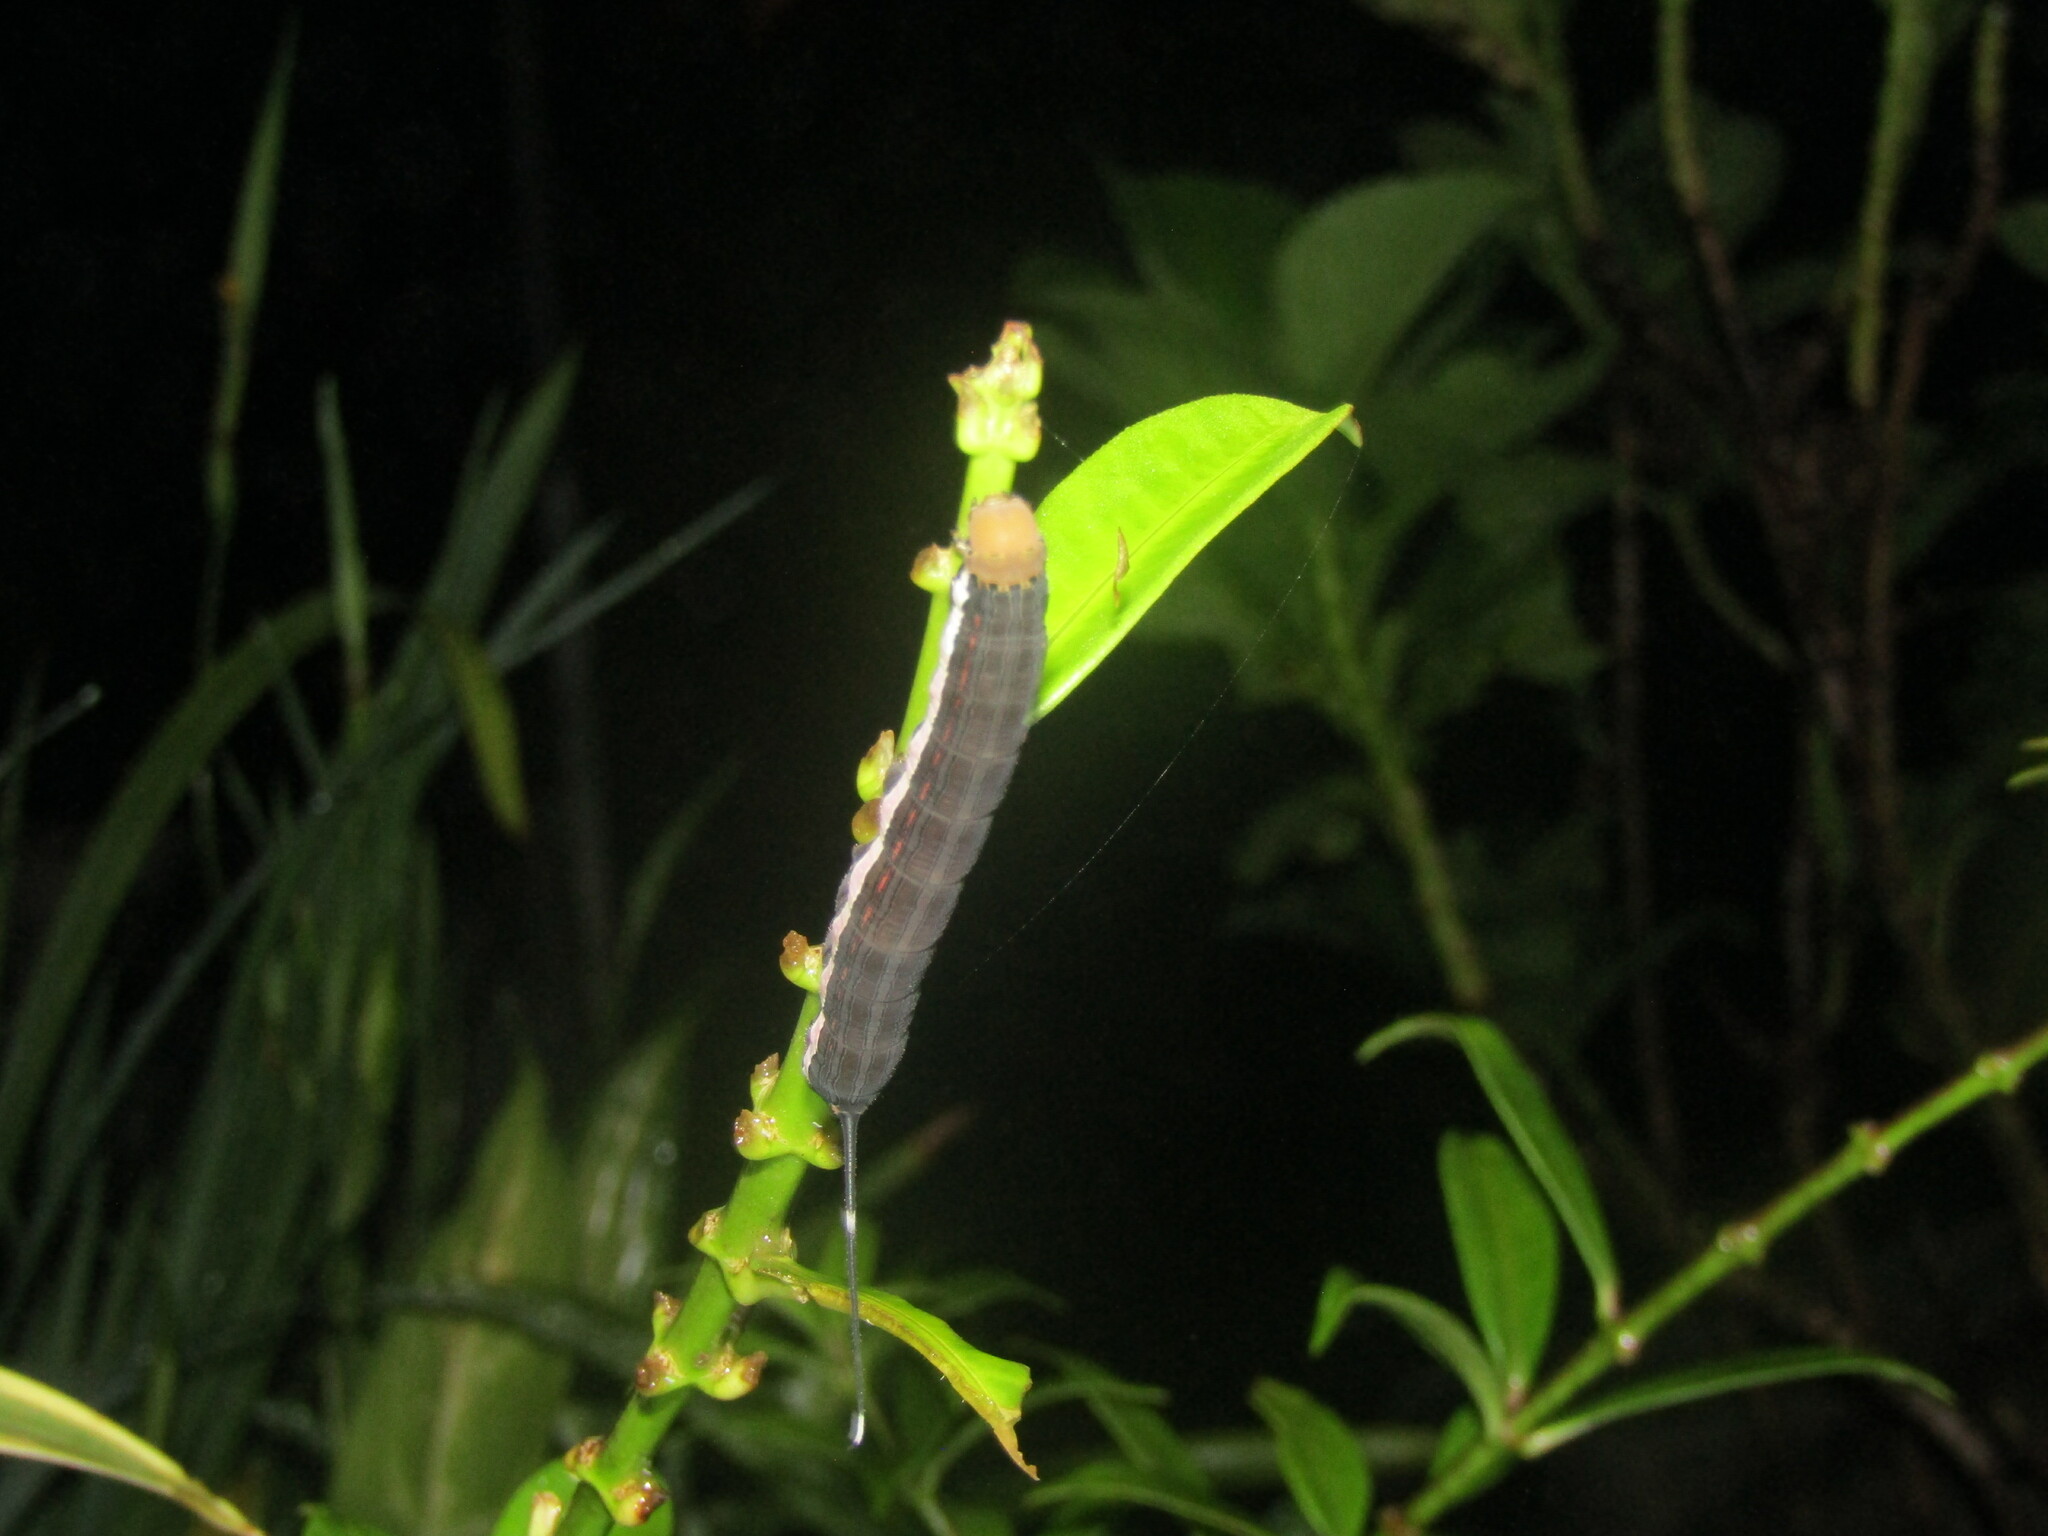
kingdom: Animalia
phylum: Arthropoda
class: Insecta
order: Lepidoptera
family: Sphingidae
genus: Isognathus
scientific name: Isognathus scyron
